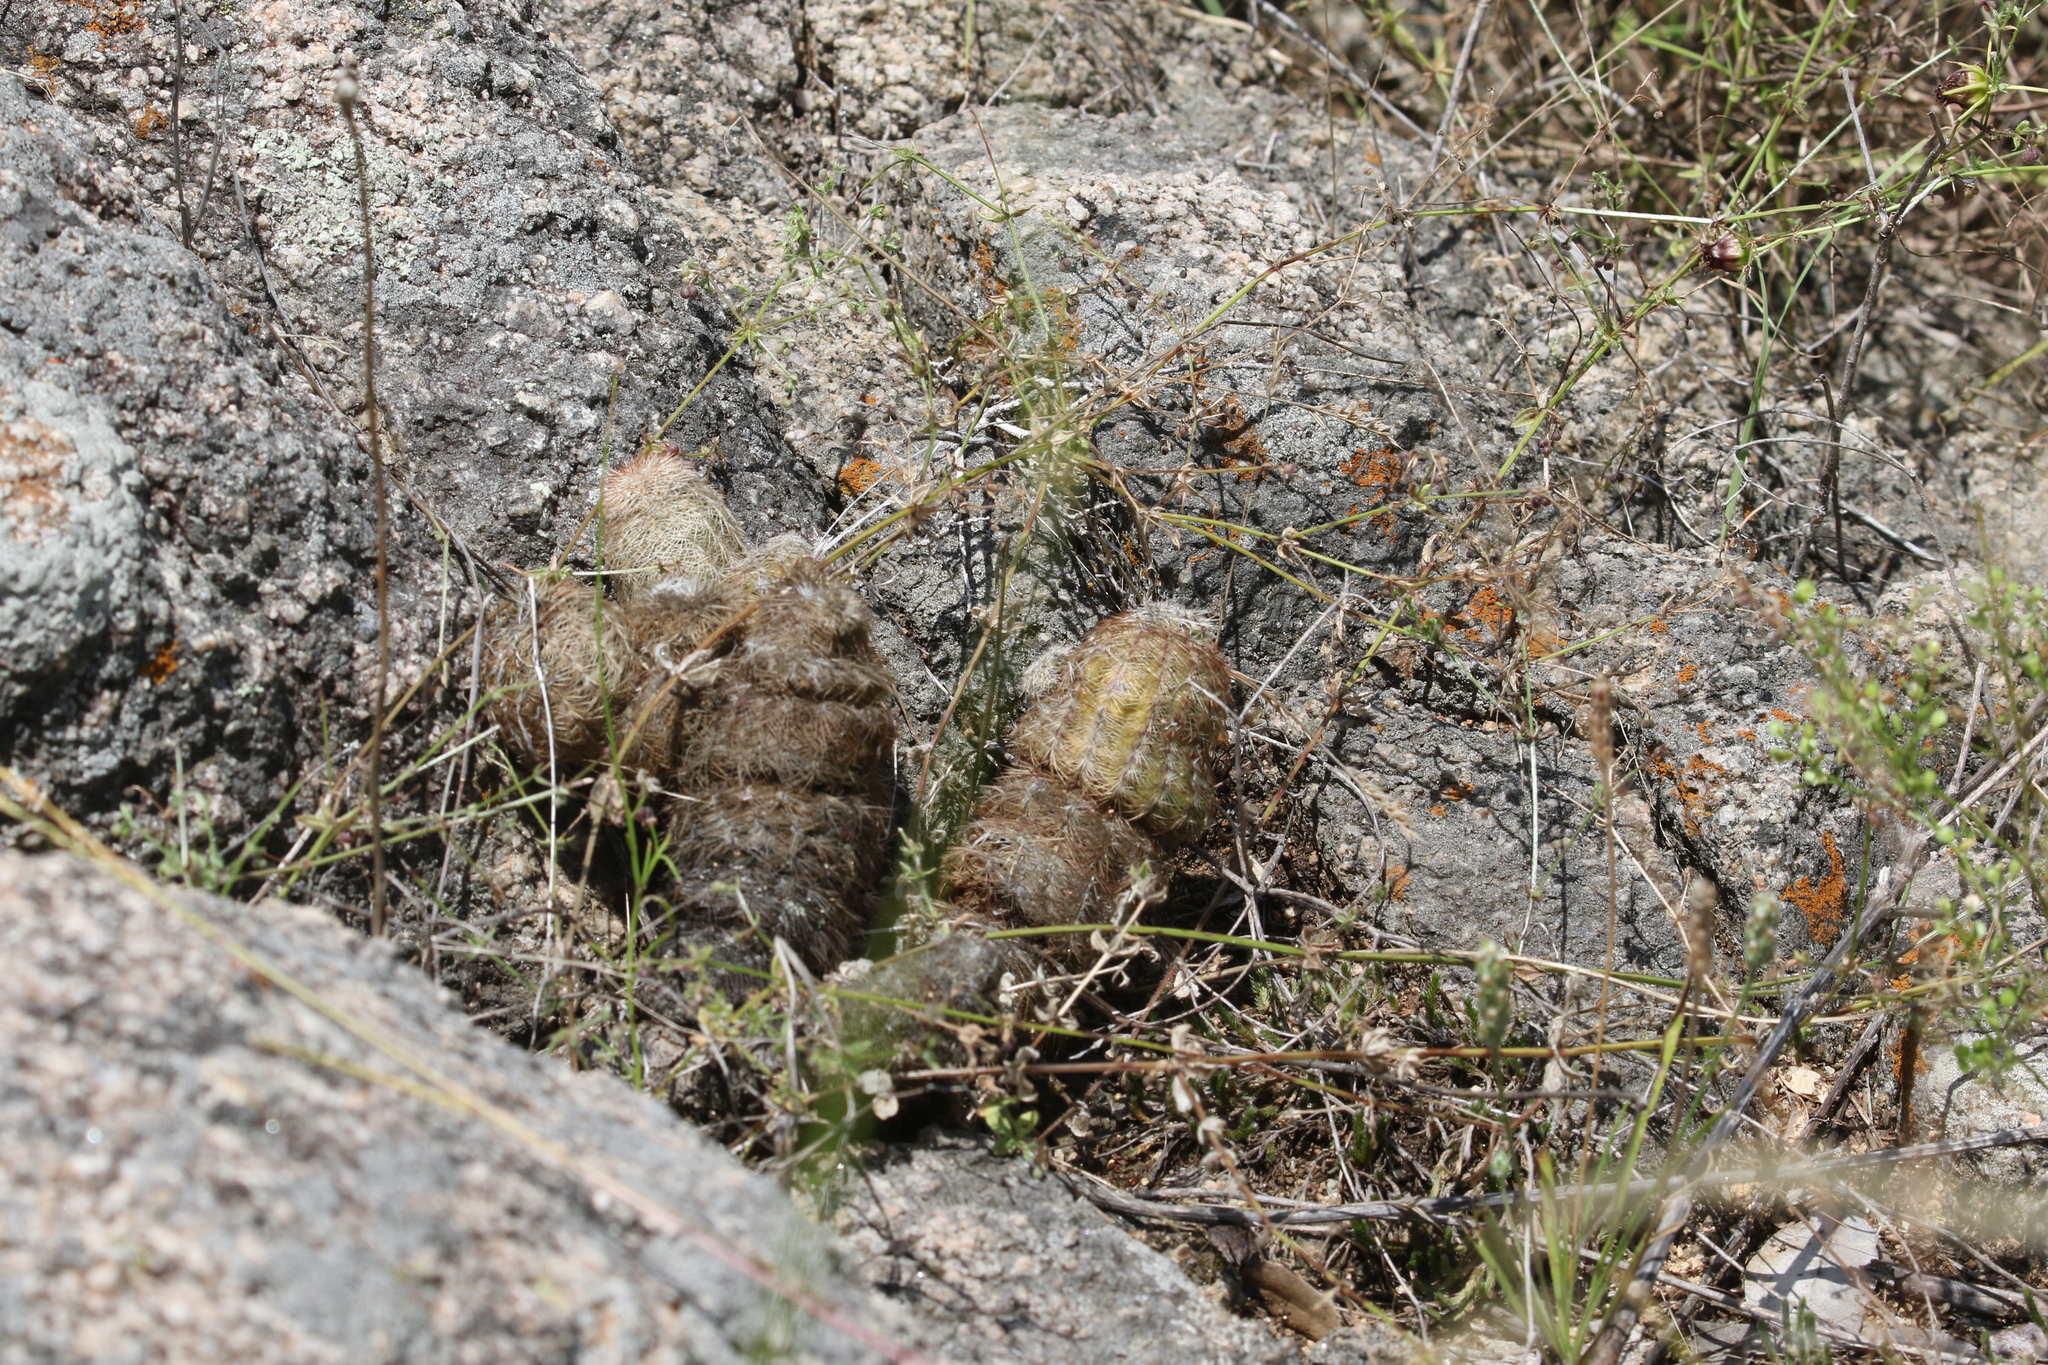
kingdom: Plantae
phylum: Tracheophyta
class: Magnoliopsida
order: Caryophyllales
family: Cactaceae
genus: Echinocereus
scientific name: Echinocereus reichenbachii
